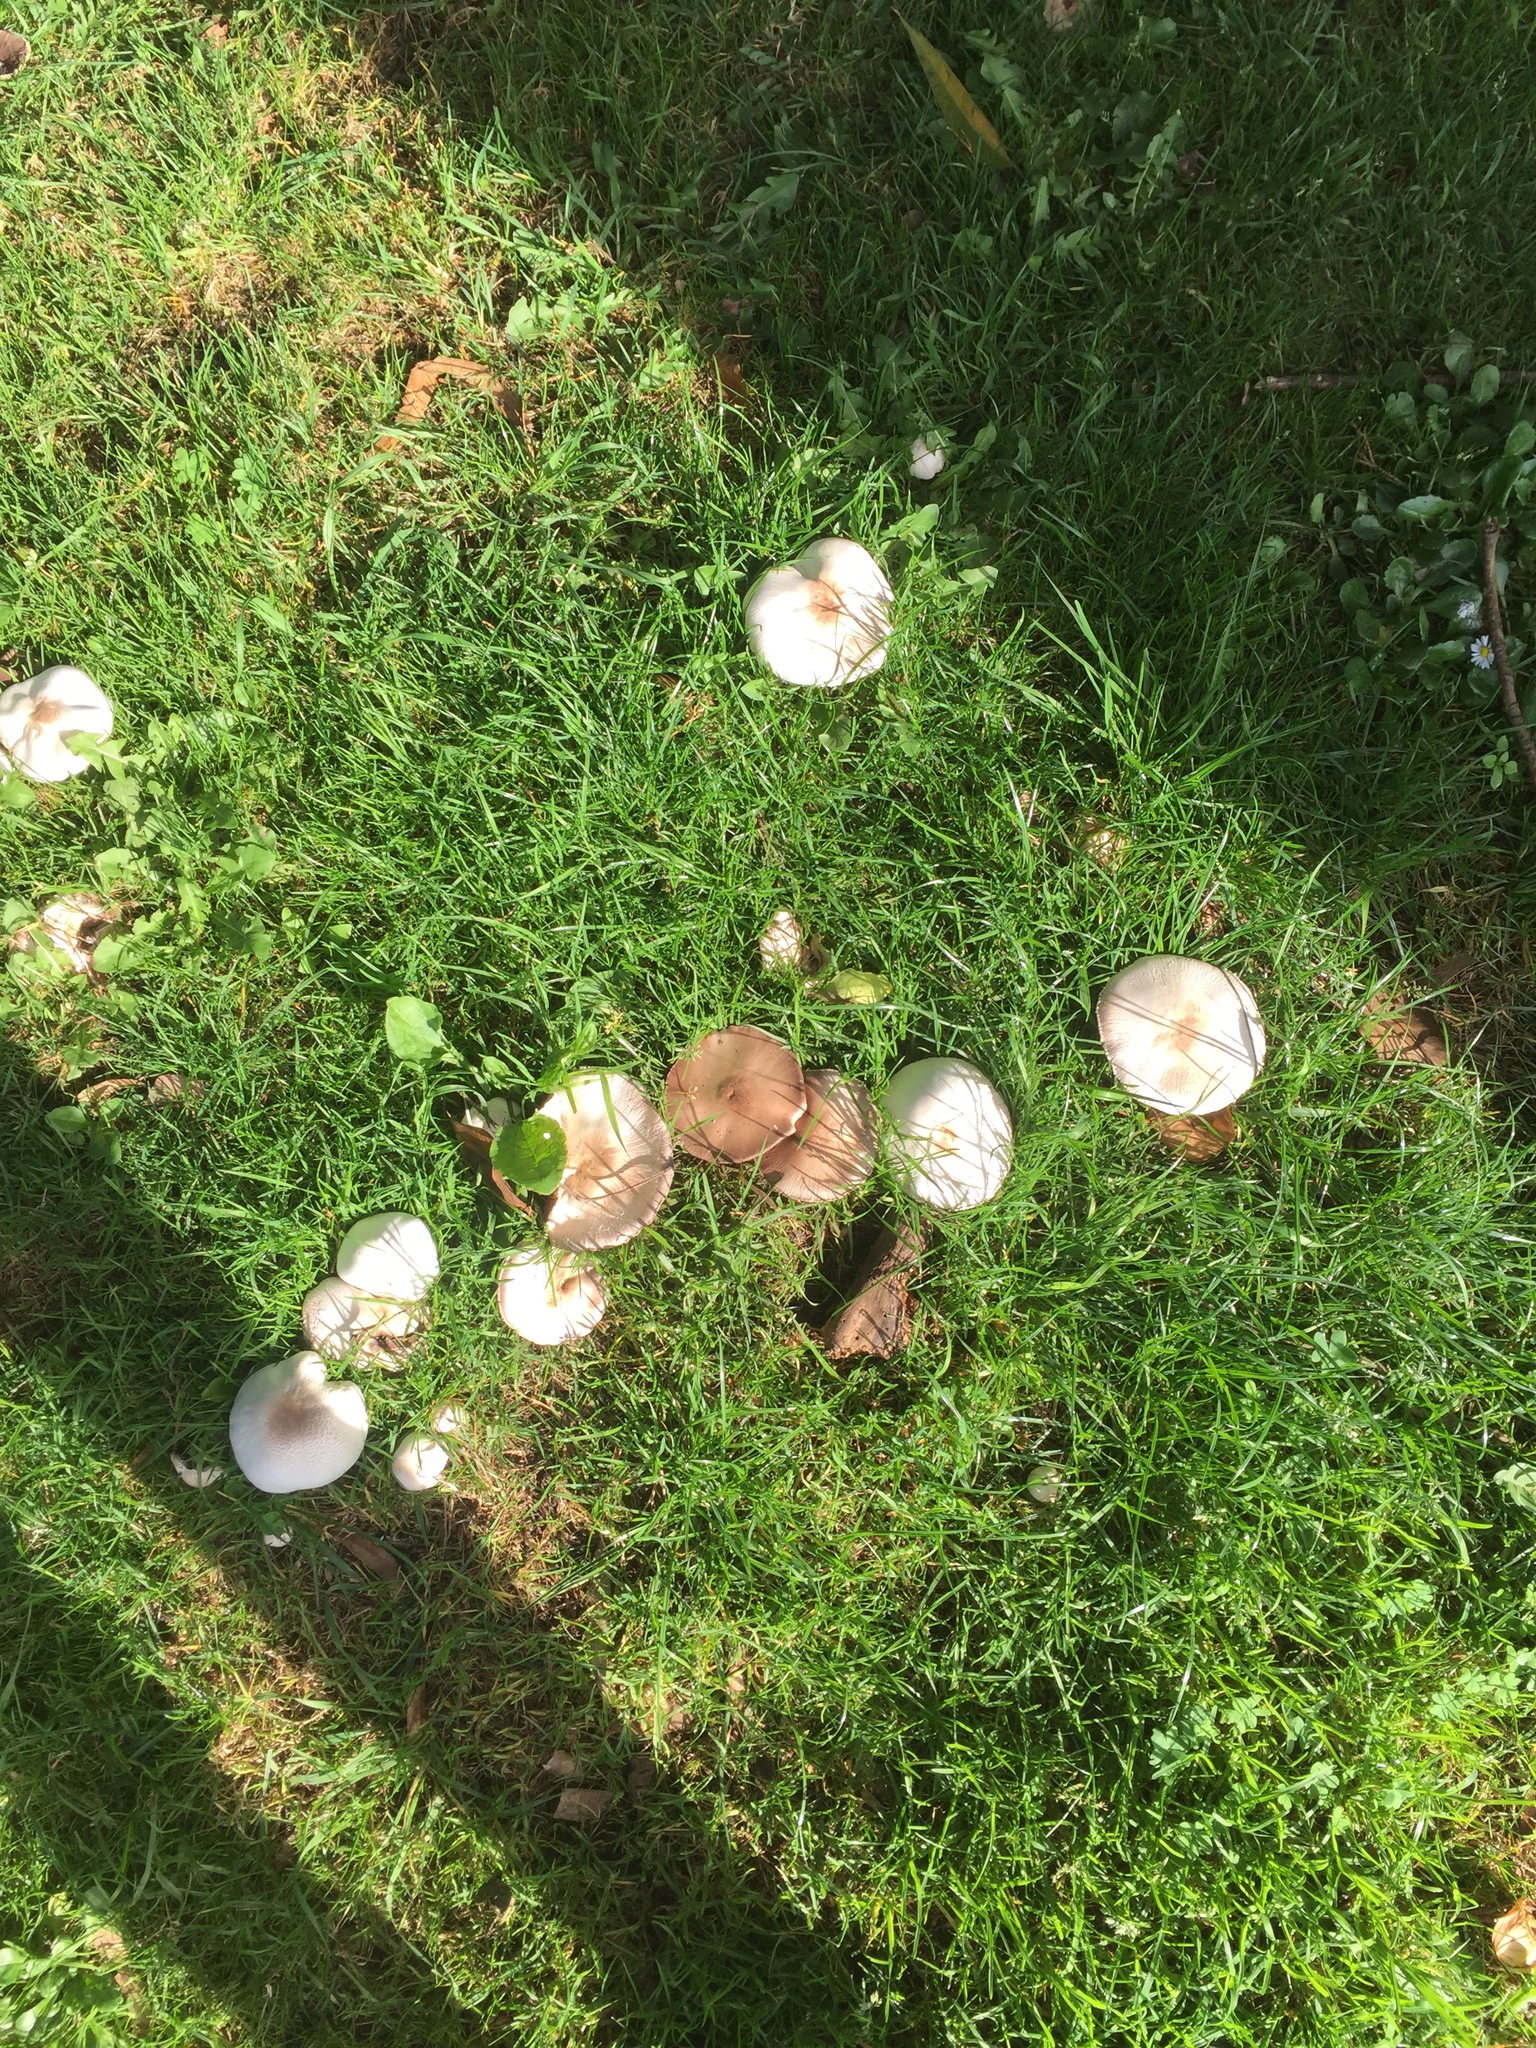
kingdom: Fungi
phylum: Basidiomycota
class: Agaricomycetes
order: Agaricales
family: Agaricaceae
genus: Agaricus
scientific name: Agaricus xanthodermus
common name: Yellow stainer
